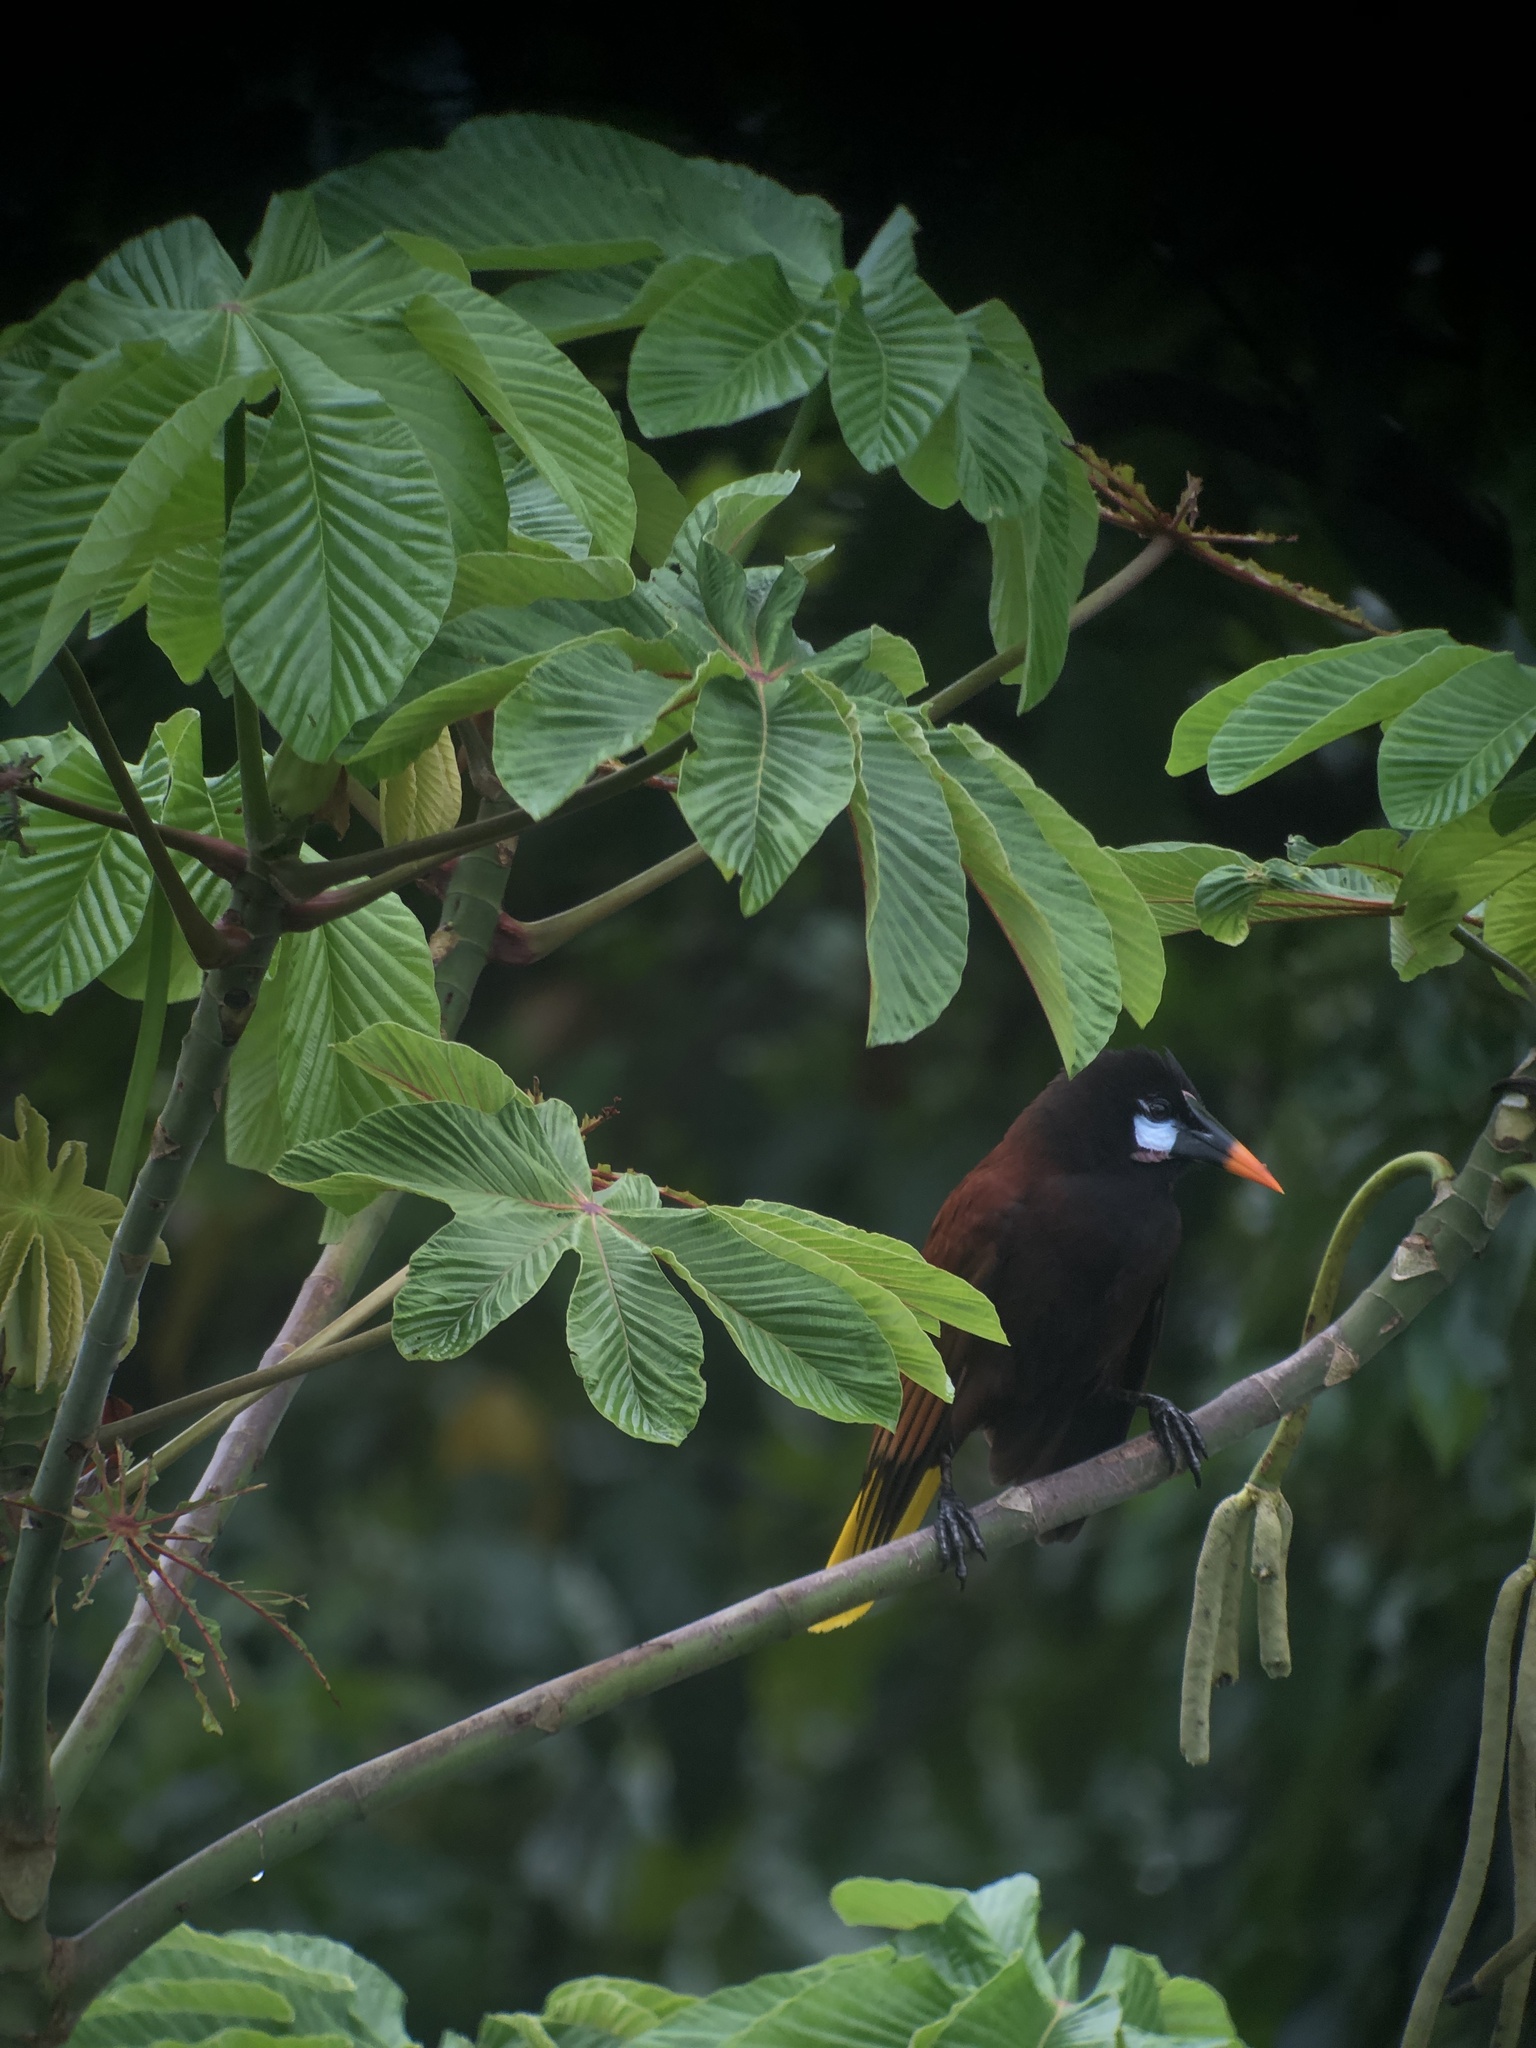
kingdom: Animalia
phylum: Chordata
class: Aves
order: Passeriformes
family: Icteridae
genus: Psarocolius
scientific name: Psarocolius montezuma
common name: Montezuma oropendola
